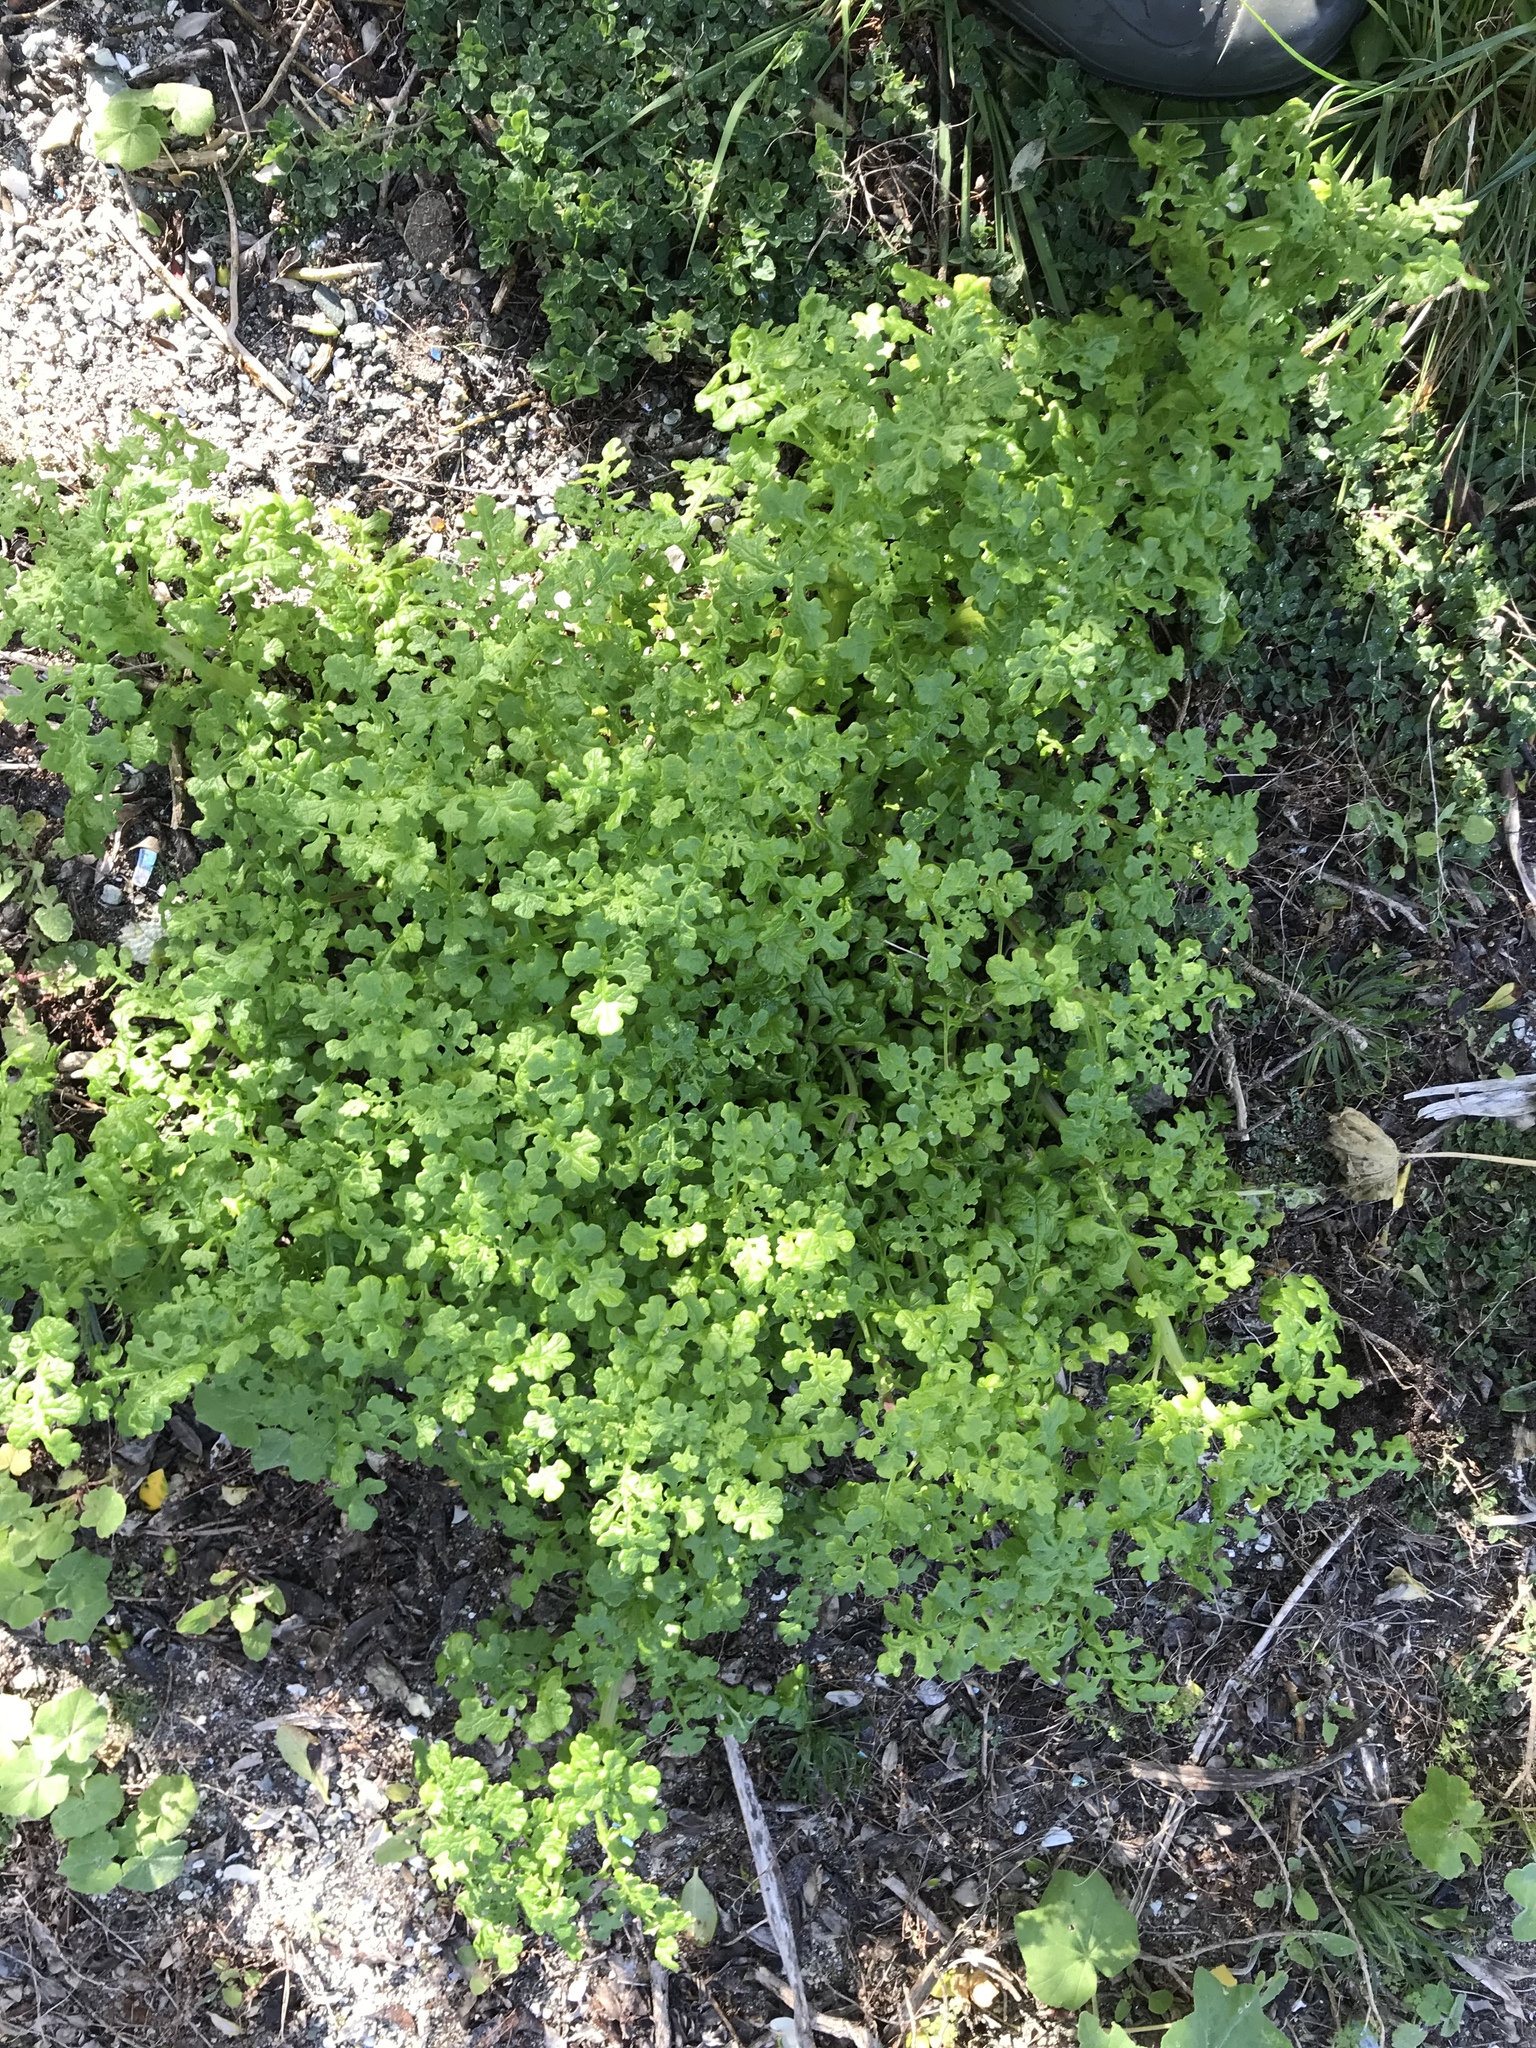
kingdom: Plantae
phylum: Tracheophyta
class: Magnoliopsida
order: Asterales
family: Asteraceae
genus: Senecio
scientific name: Senecio elegans
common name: Purple groundsel
